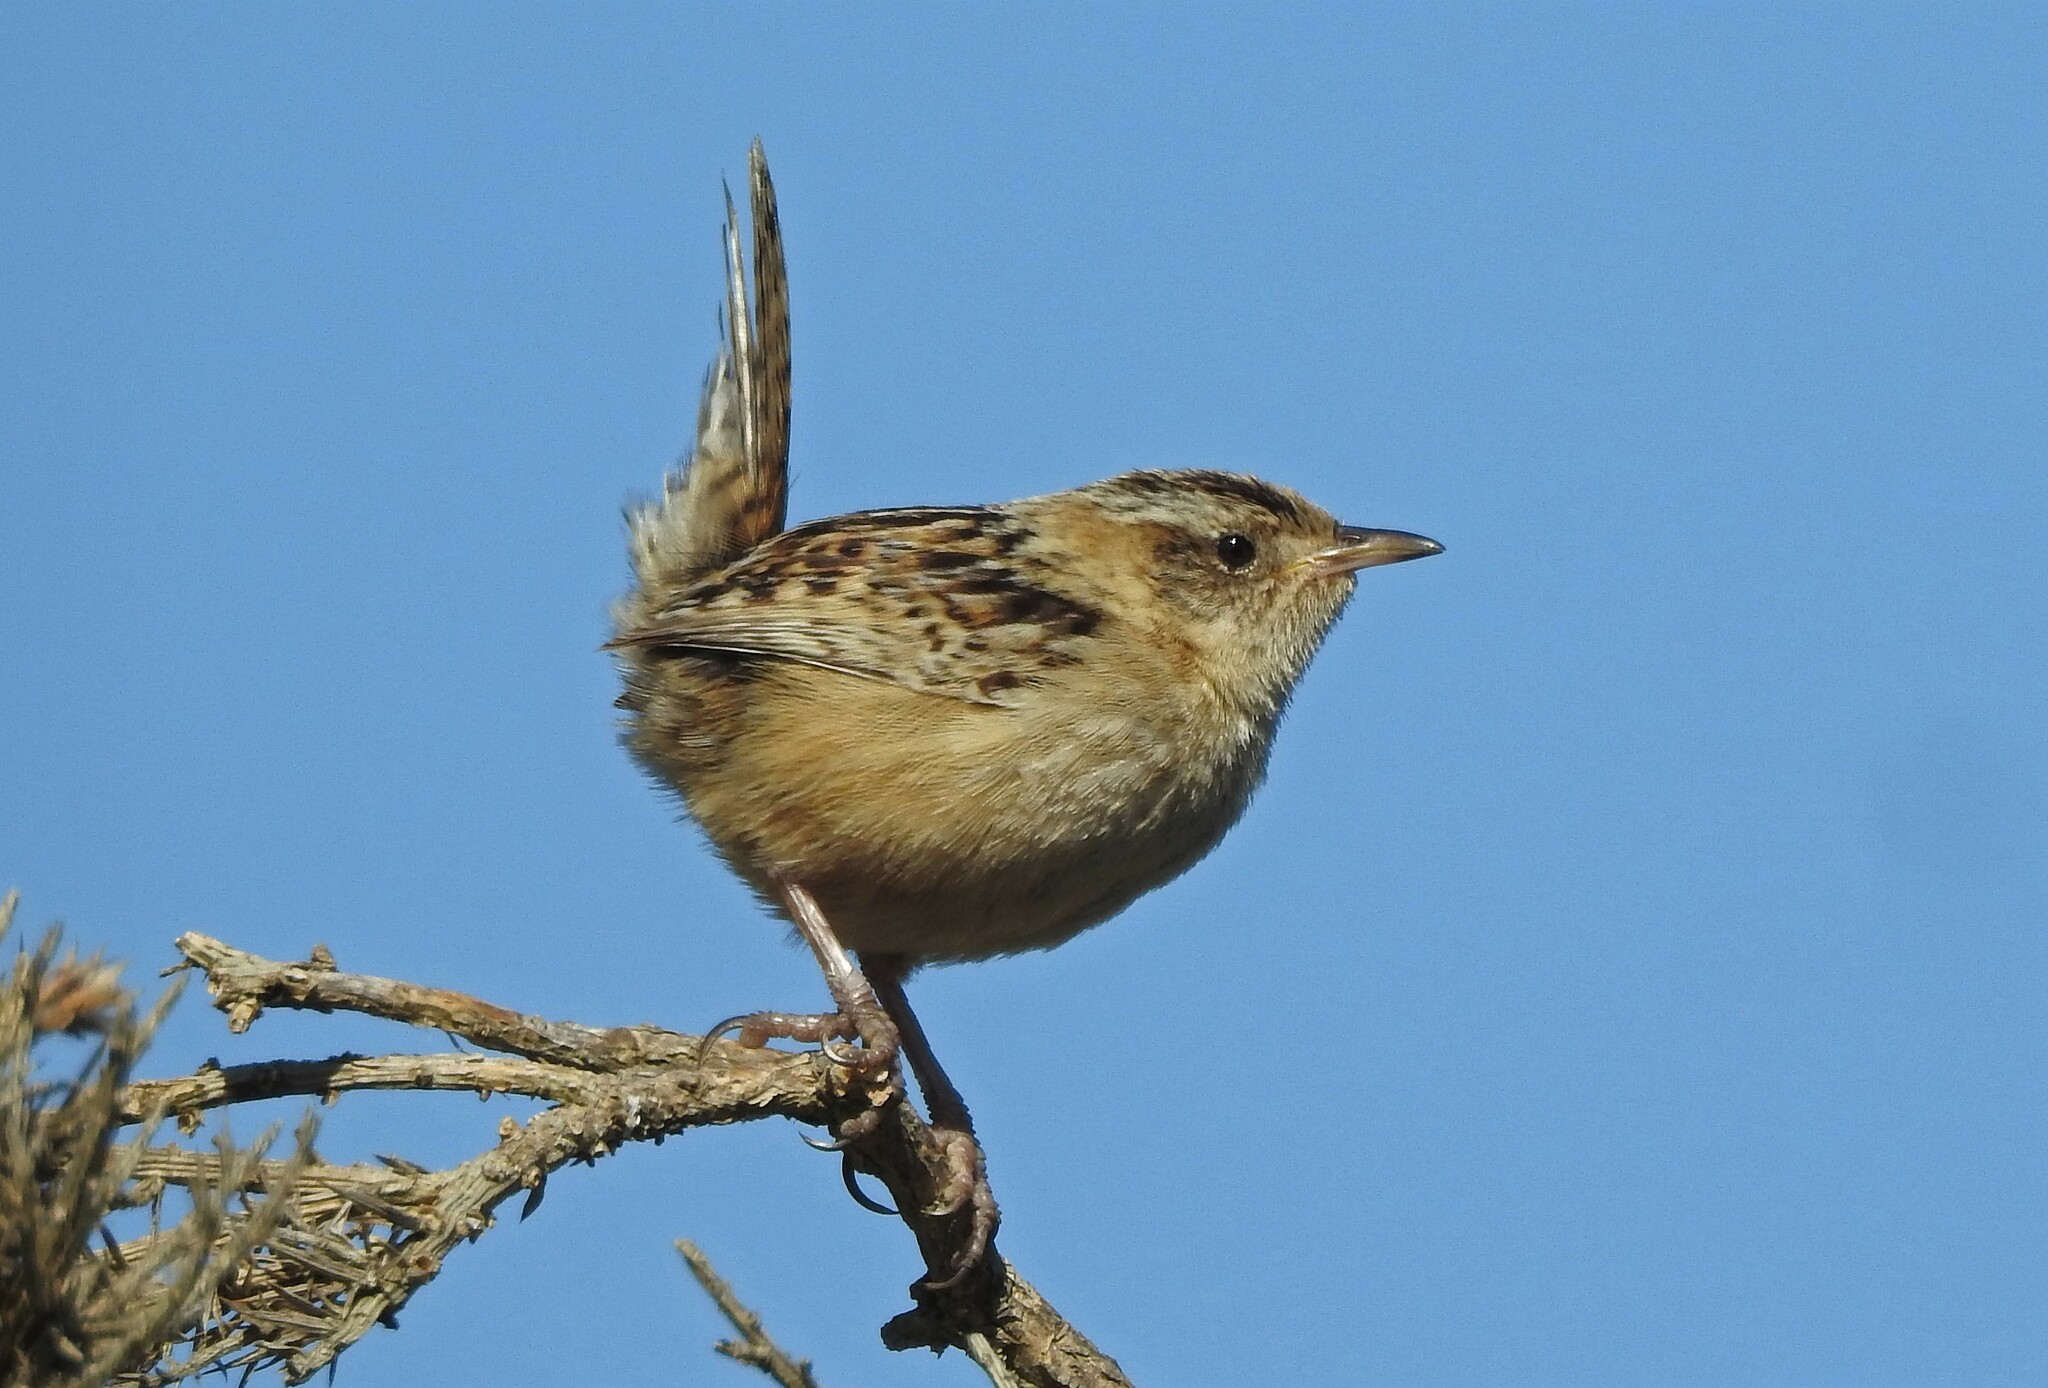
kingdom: Animalia
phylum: Chordata
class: Aves
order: Passeriformes
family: Troglodytidae
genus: Cistothorus
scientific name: Cistothorus platensis
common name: Sedge wren
